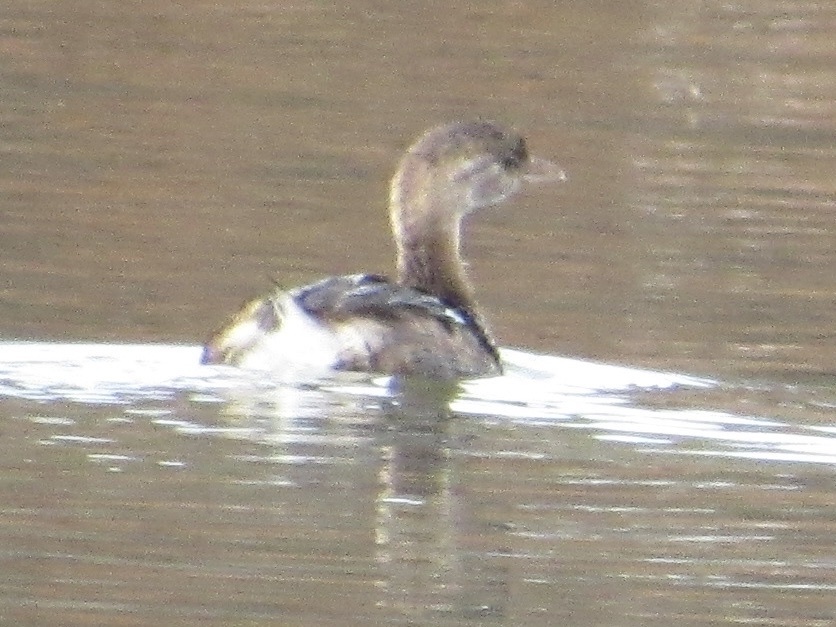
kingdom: Animalia
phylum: Chordata
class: Aves
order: Podicipediformes
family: Podicipedidae
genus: Podilymbus
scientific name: Podilymbus podiceps
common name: Pied-billed grebe
